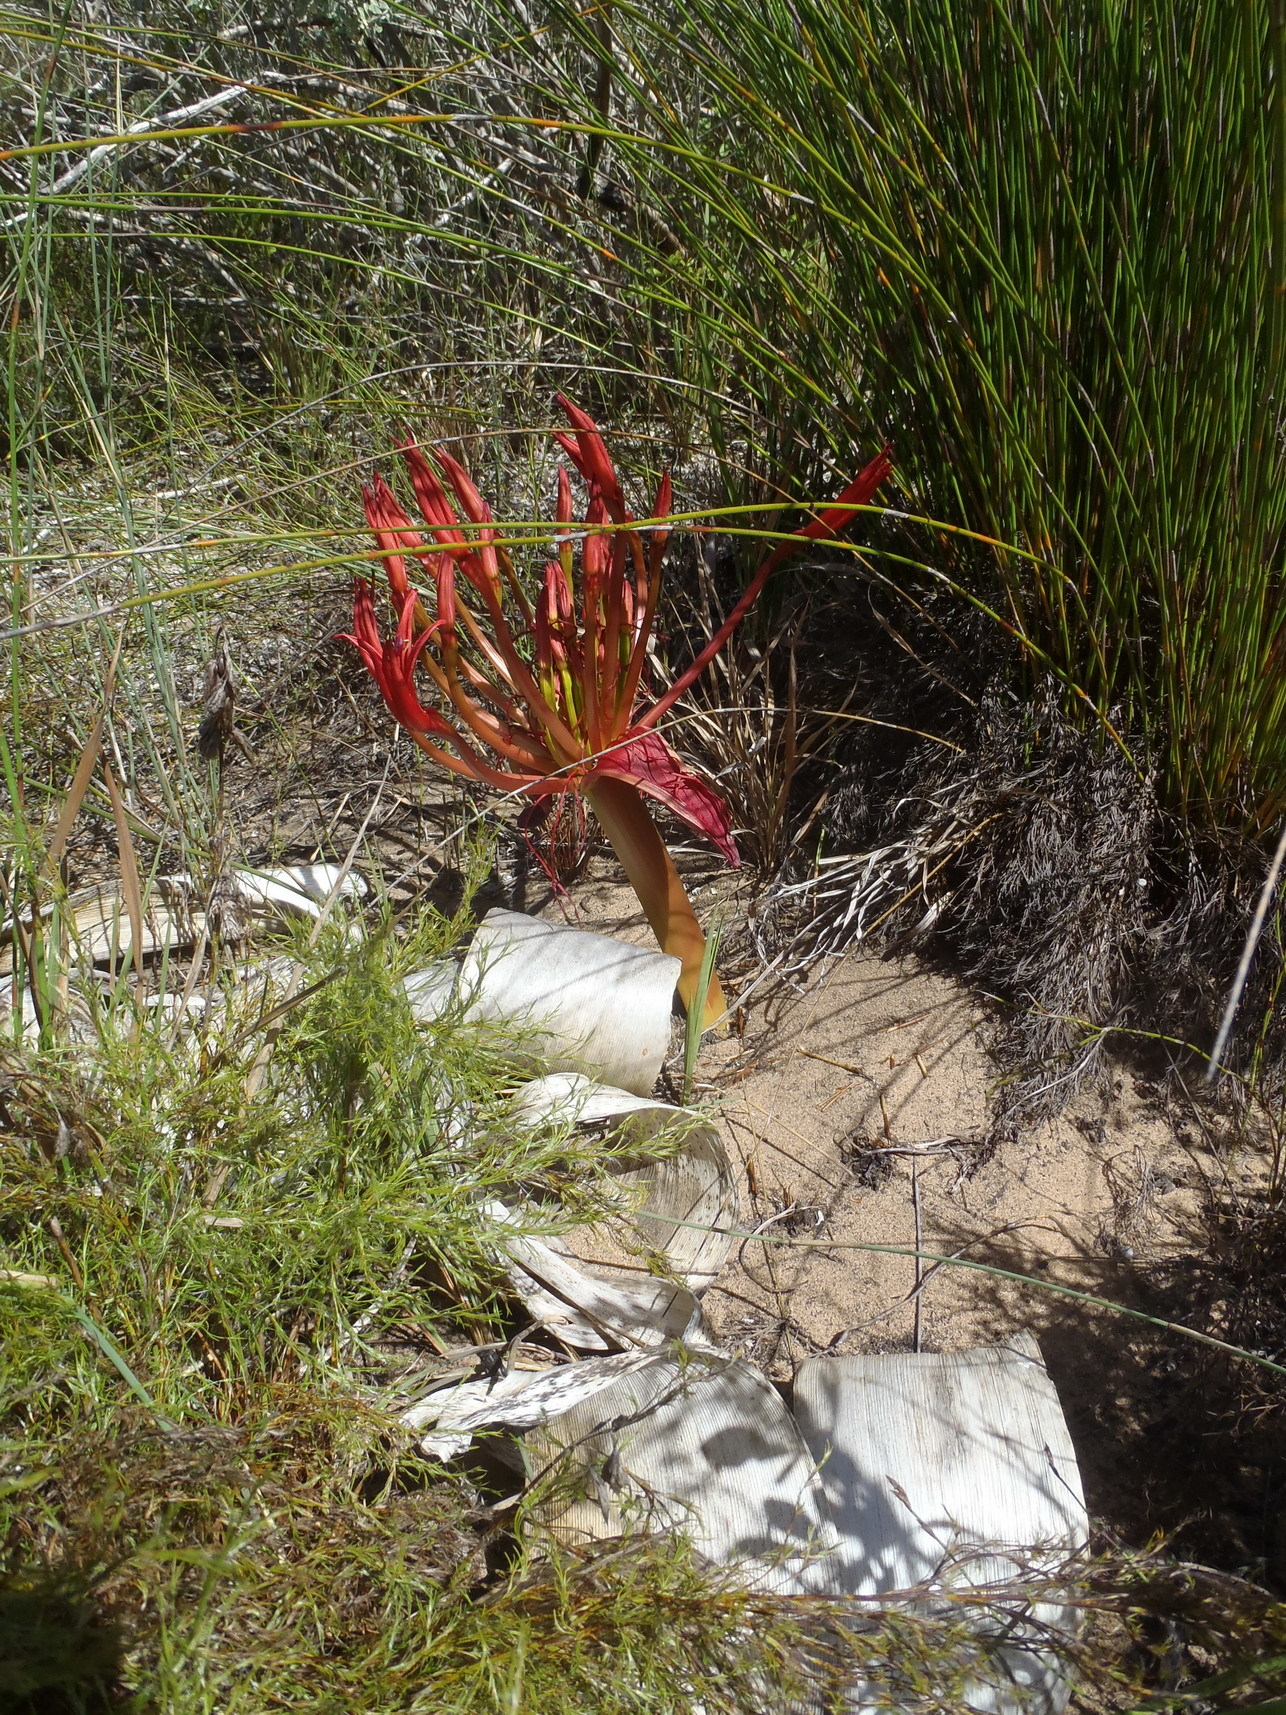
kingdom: Plantae
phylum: Tracheophyta
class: Liliopsida
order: Asparagales
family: Amaryllidaceae
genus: Brunsvigia
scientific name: Brunsvigia orientalis
